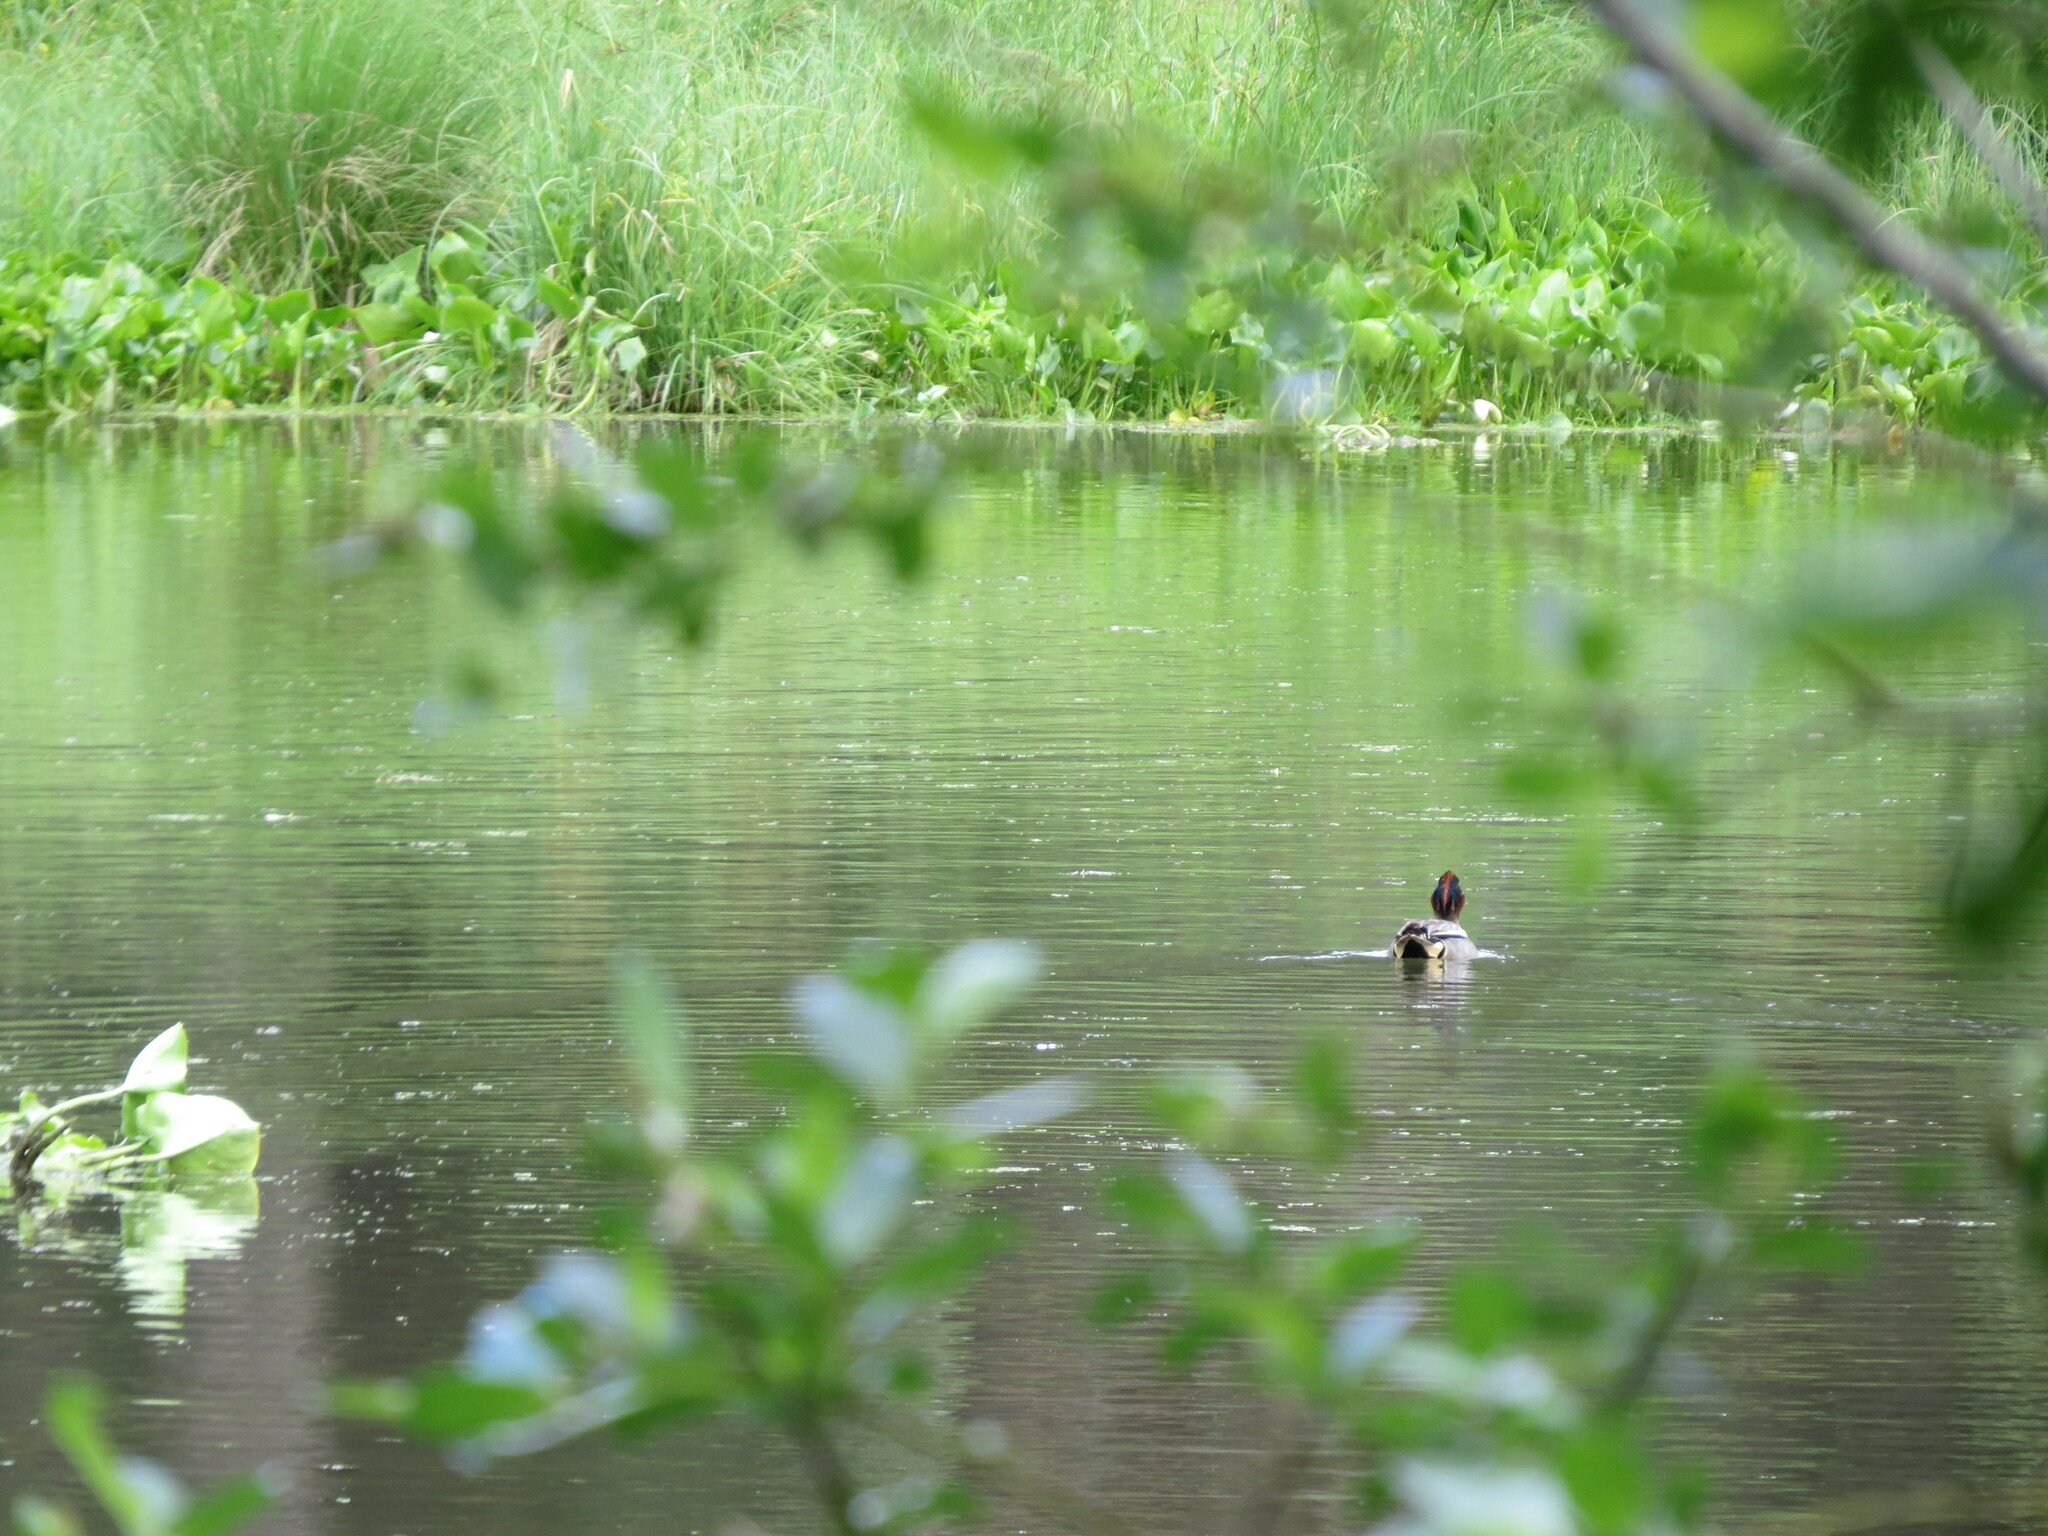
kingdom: Animalia
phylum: Chordata
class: Aves
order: Anseriformes
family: Anatidae
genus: Anas
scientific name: Anas crecca
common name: Eurasian teal
